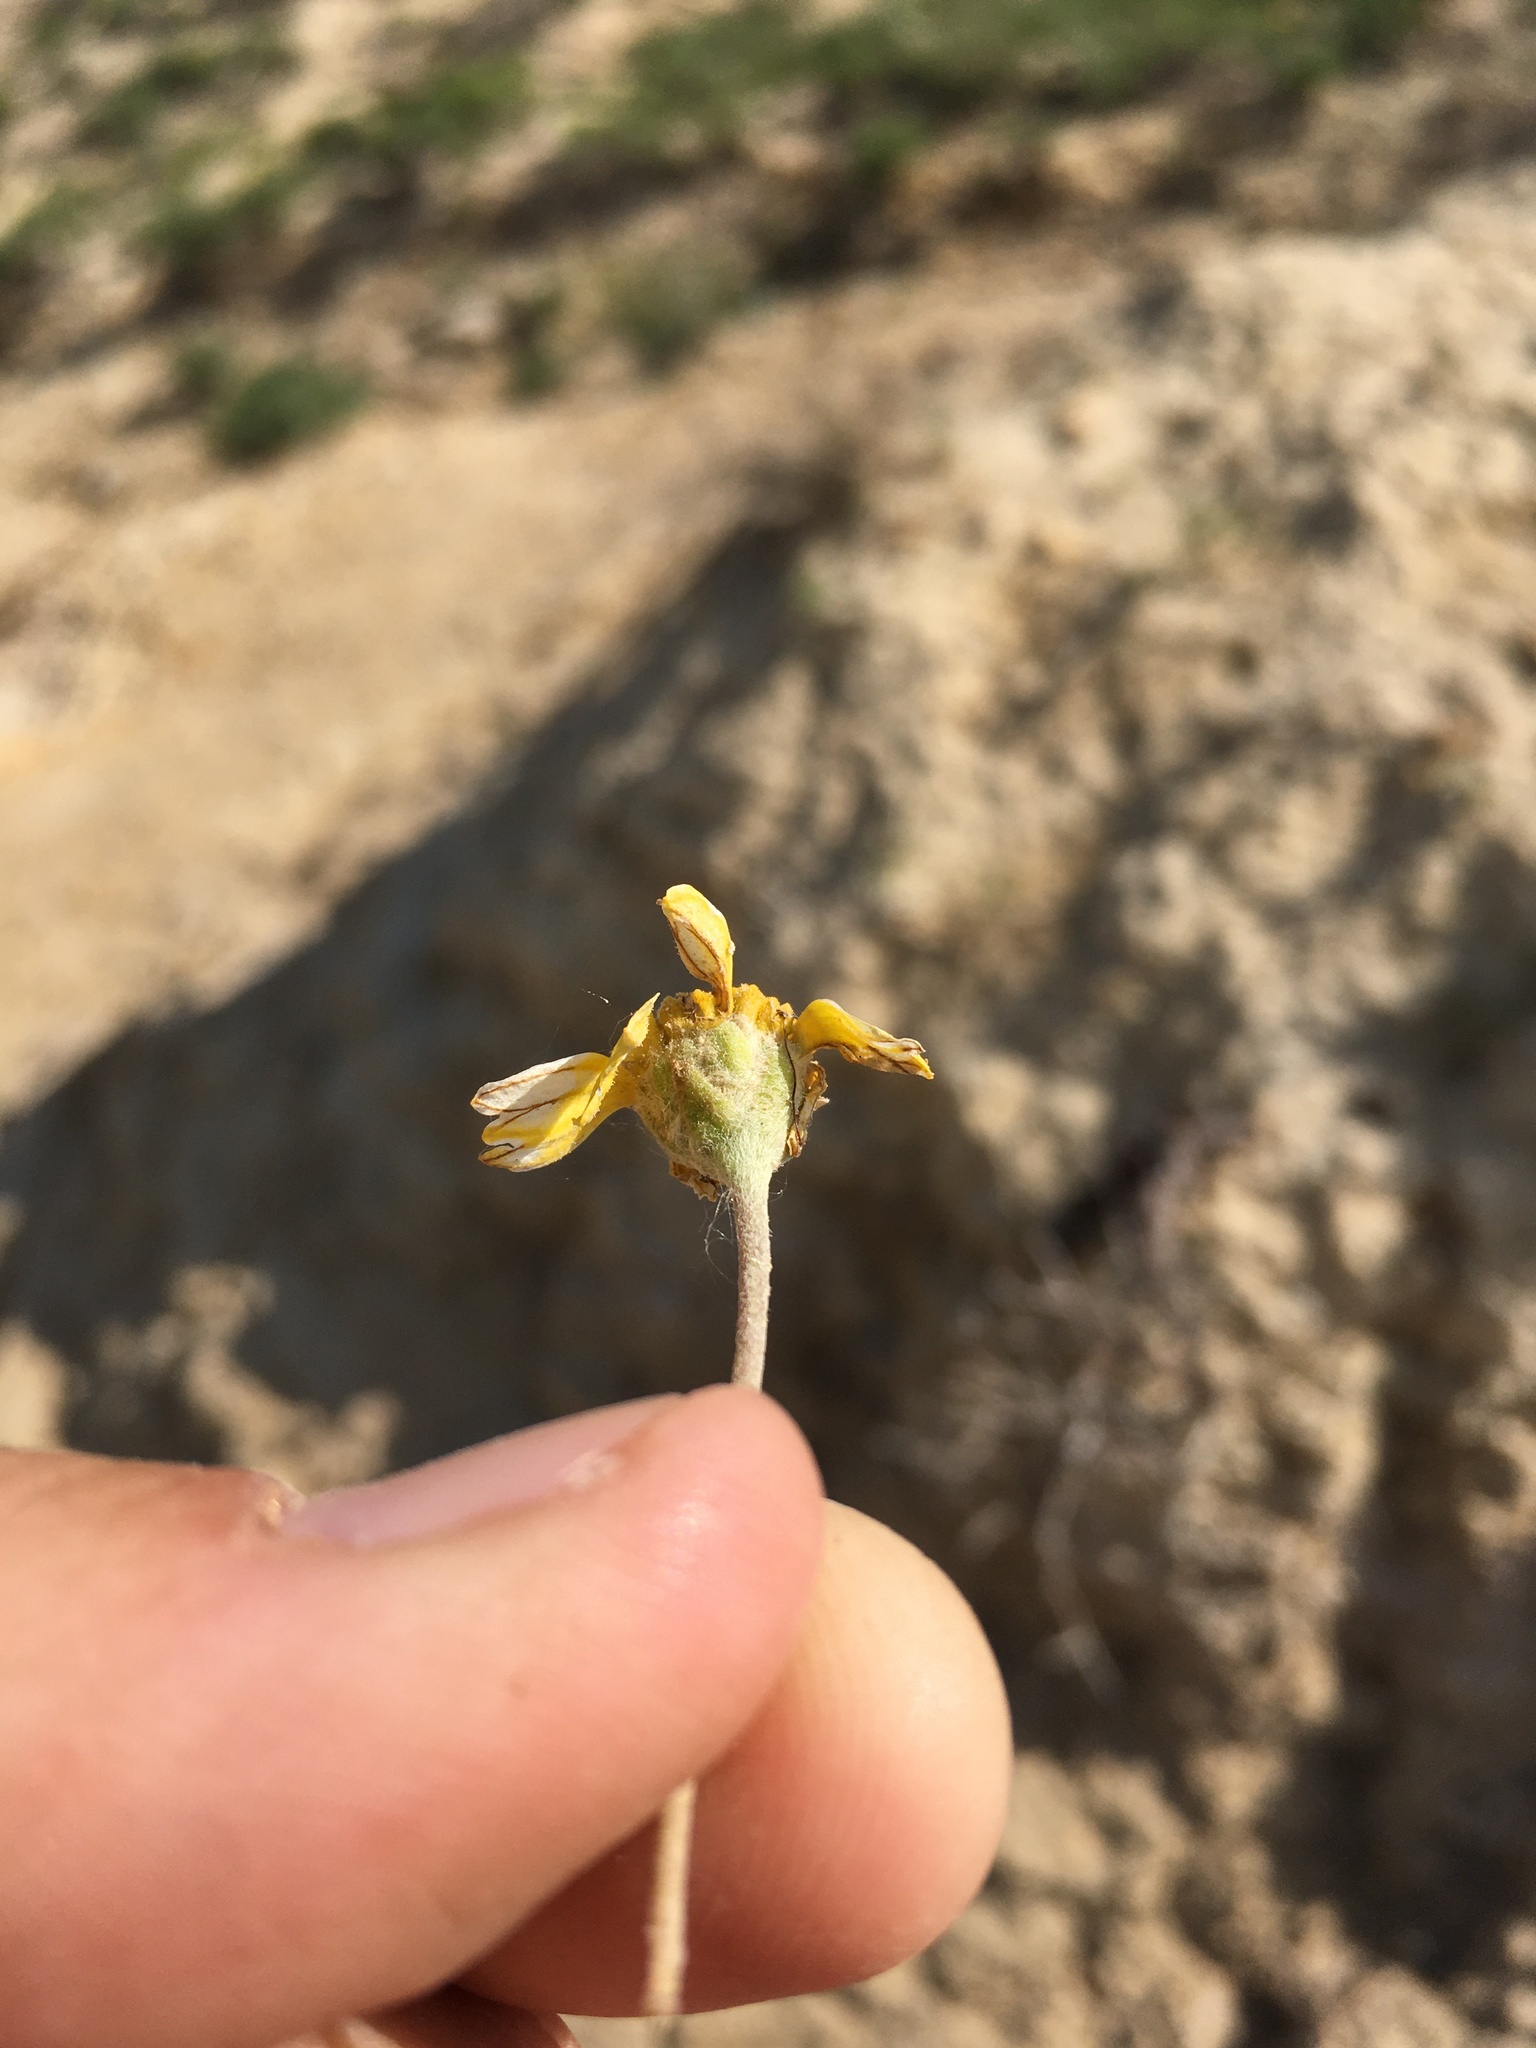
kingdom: Plantae
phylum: Tracheophyta
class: Magnoliopsida
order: Asterales
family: Asteraceae
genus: Liatris
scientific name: Liatris punctata
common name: Dotted gayfeather
